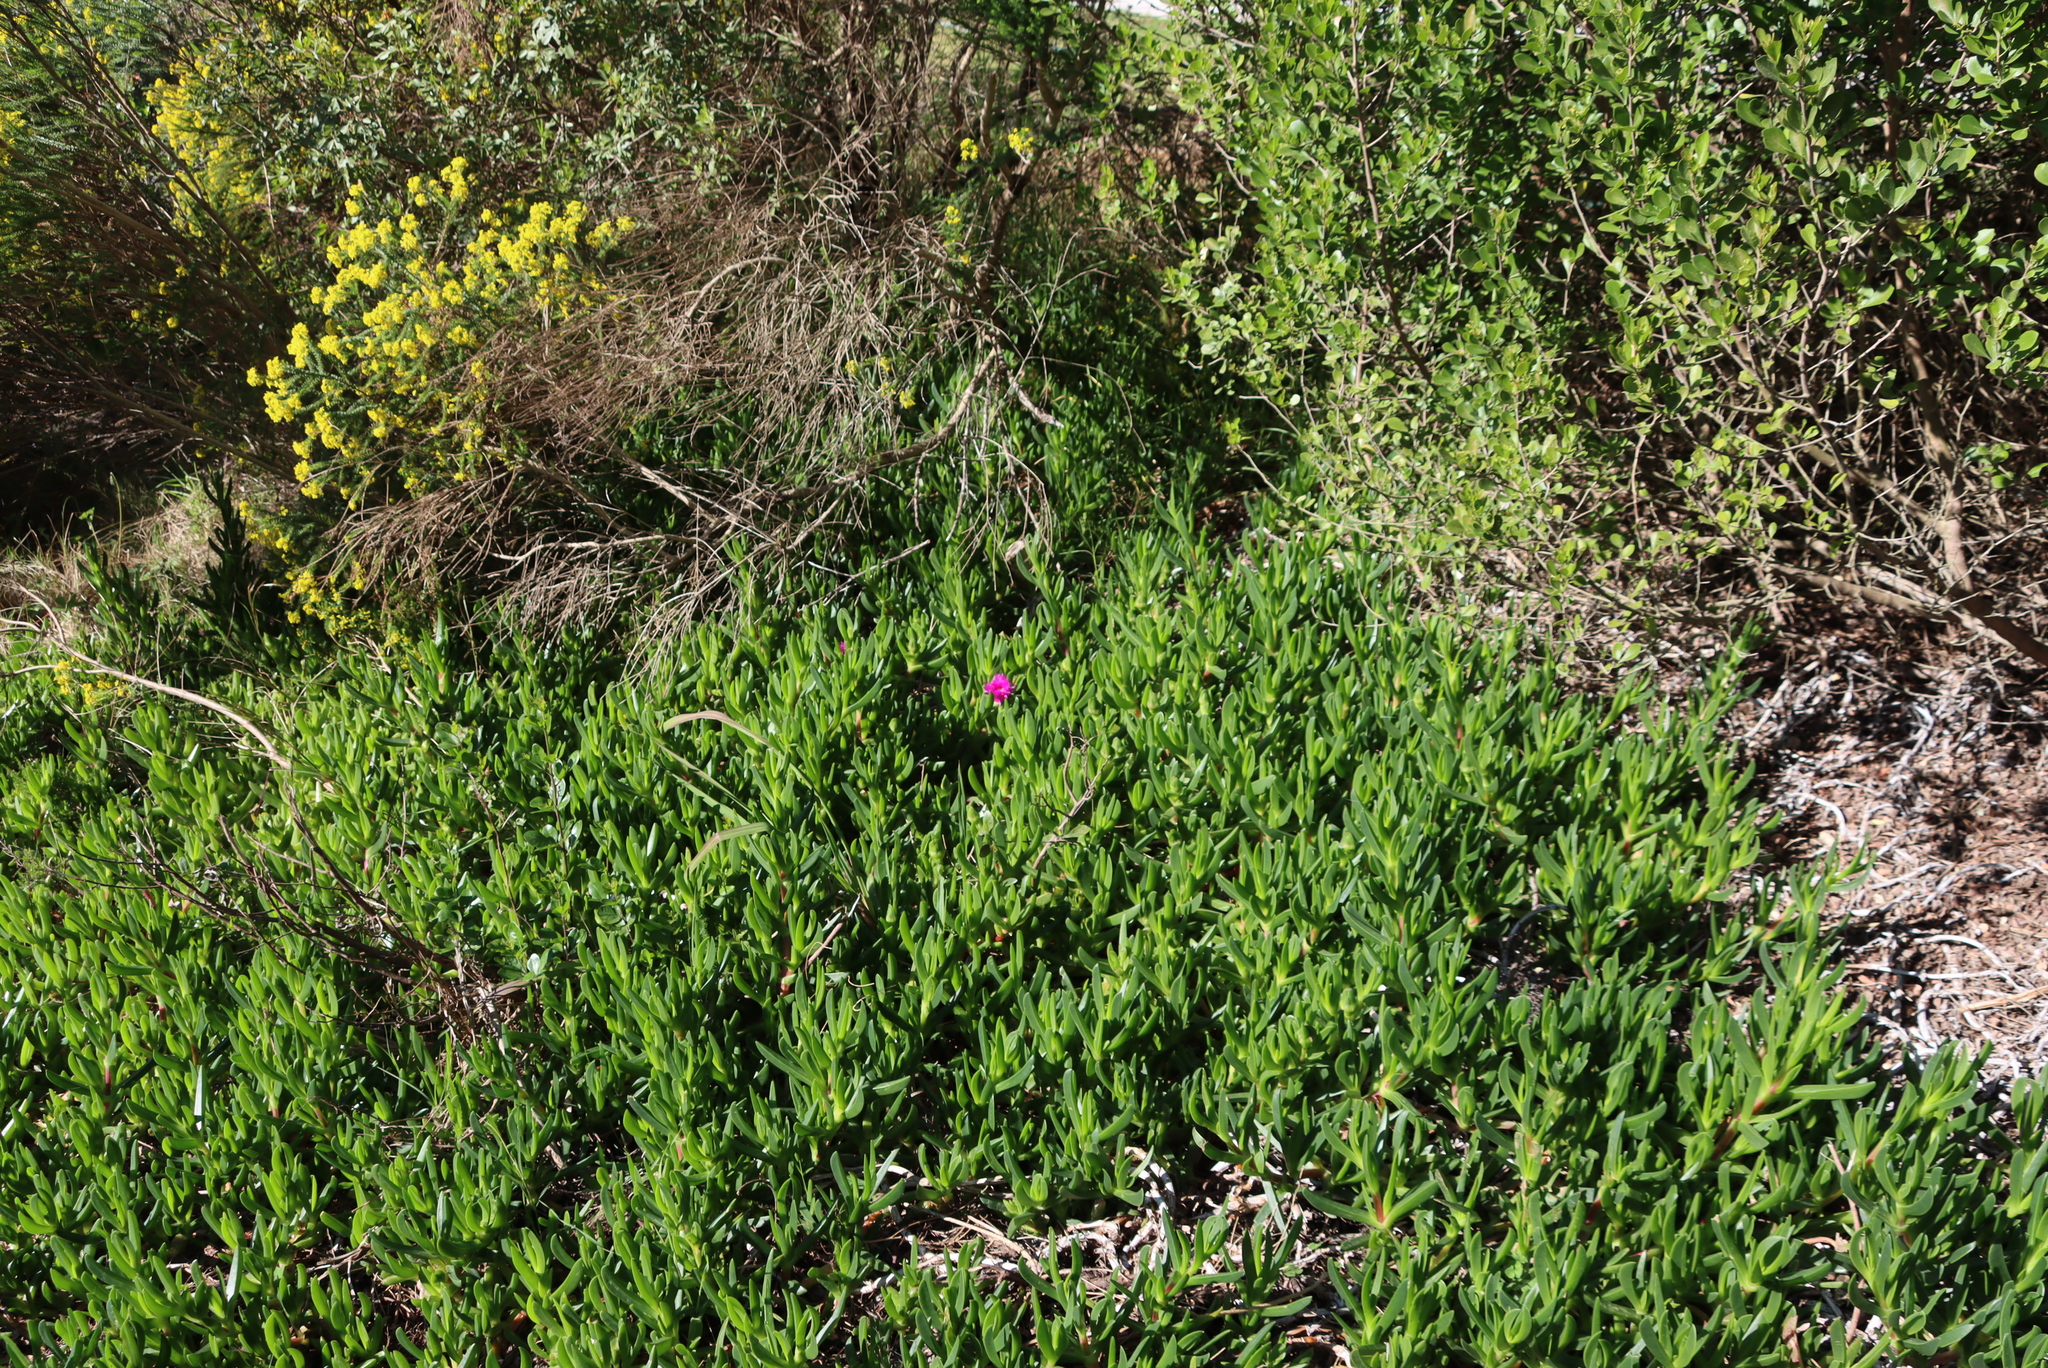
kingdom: Plantae
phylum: Tracheophyta
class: Magnoliopsida
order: Caryophyllales
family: Aizoaceae
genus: Carpobrotus
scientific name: Carpobrotus deliciosus
